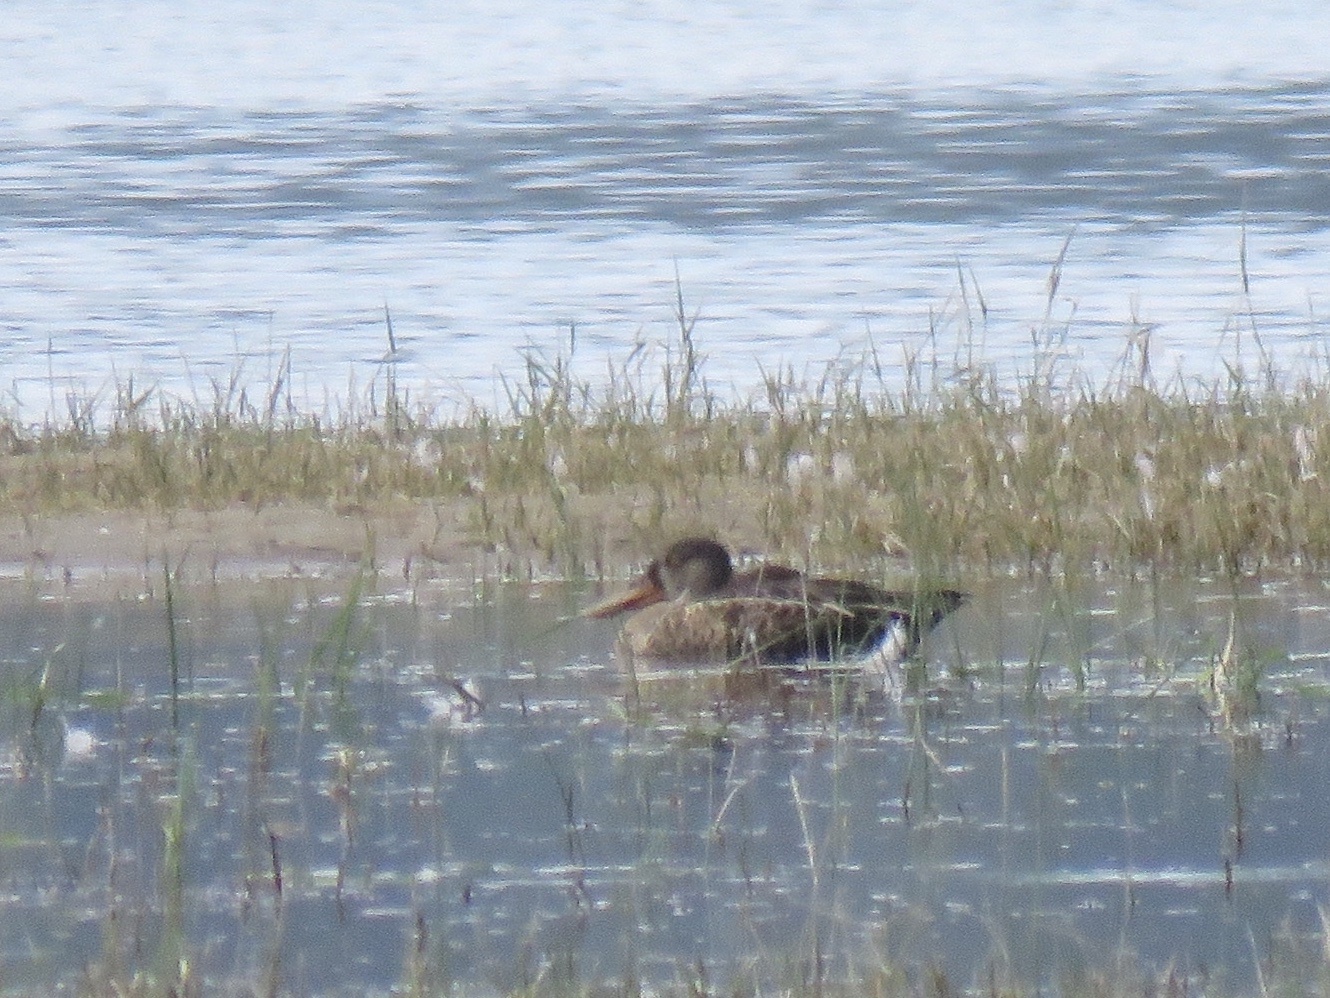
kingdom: Animalia
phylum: Chordata
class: Aves
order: Anseriformes
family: Anatidae
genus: Spatula
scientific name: Spatula clypeata
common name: Northern shoveler
